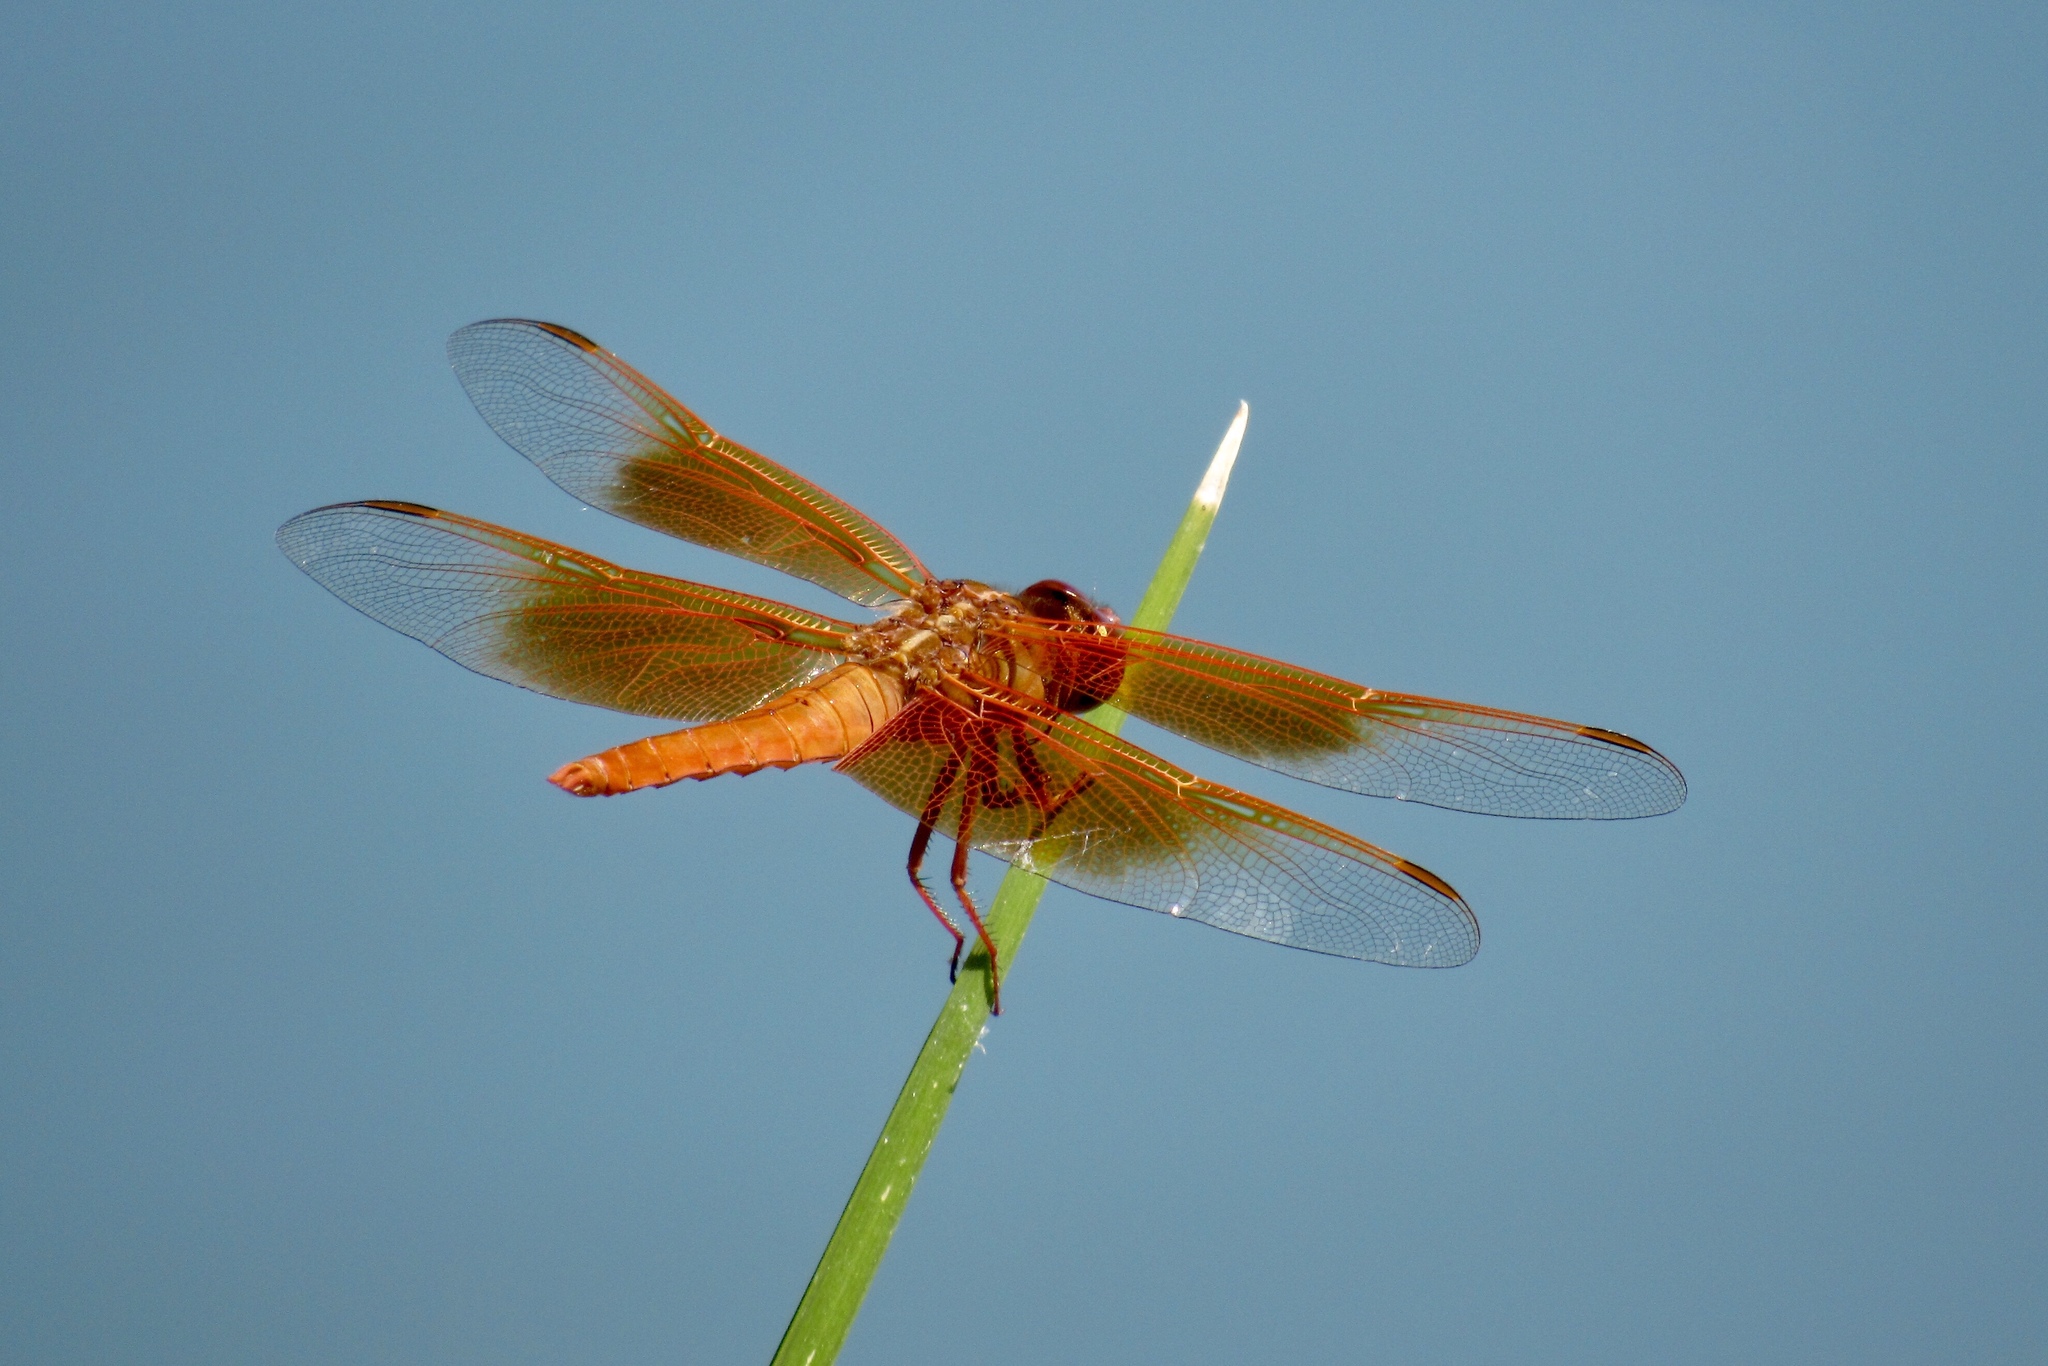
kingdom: Animalia
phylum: Arthropoda
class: Insecta
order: Odonata
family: Libellulidae
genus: Libellula
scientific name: Libellula saturata
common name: Flame skimmer
